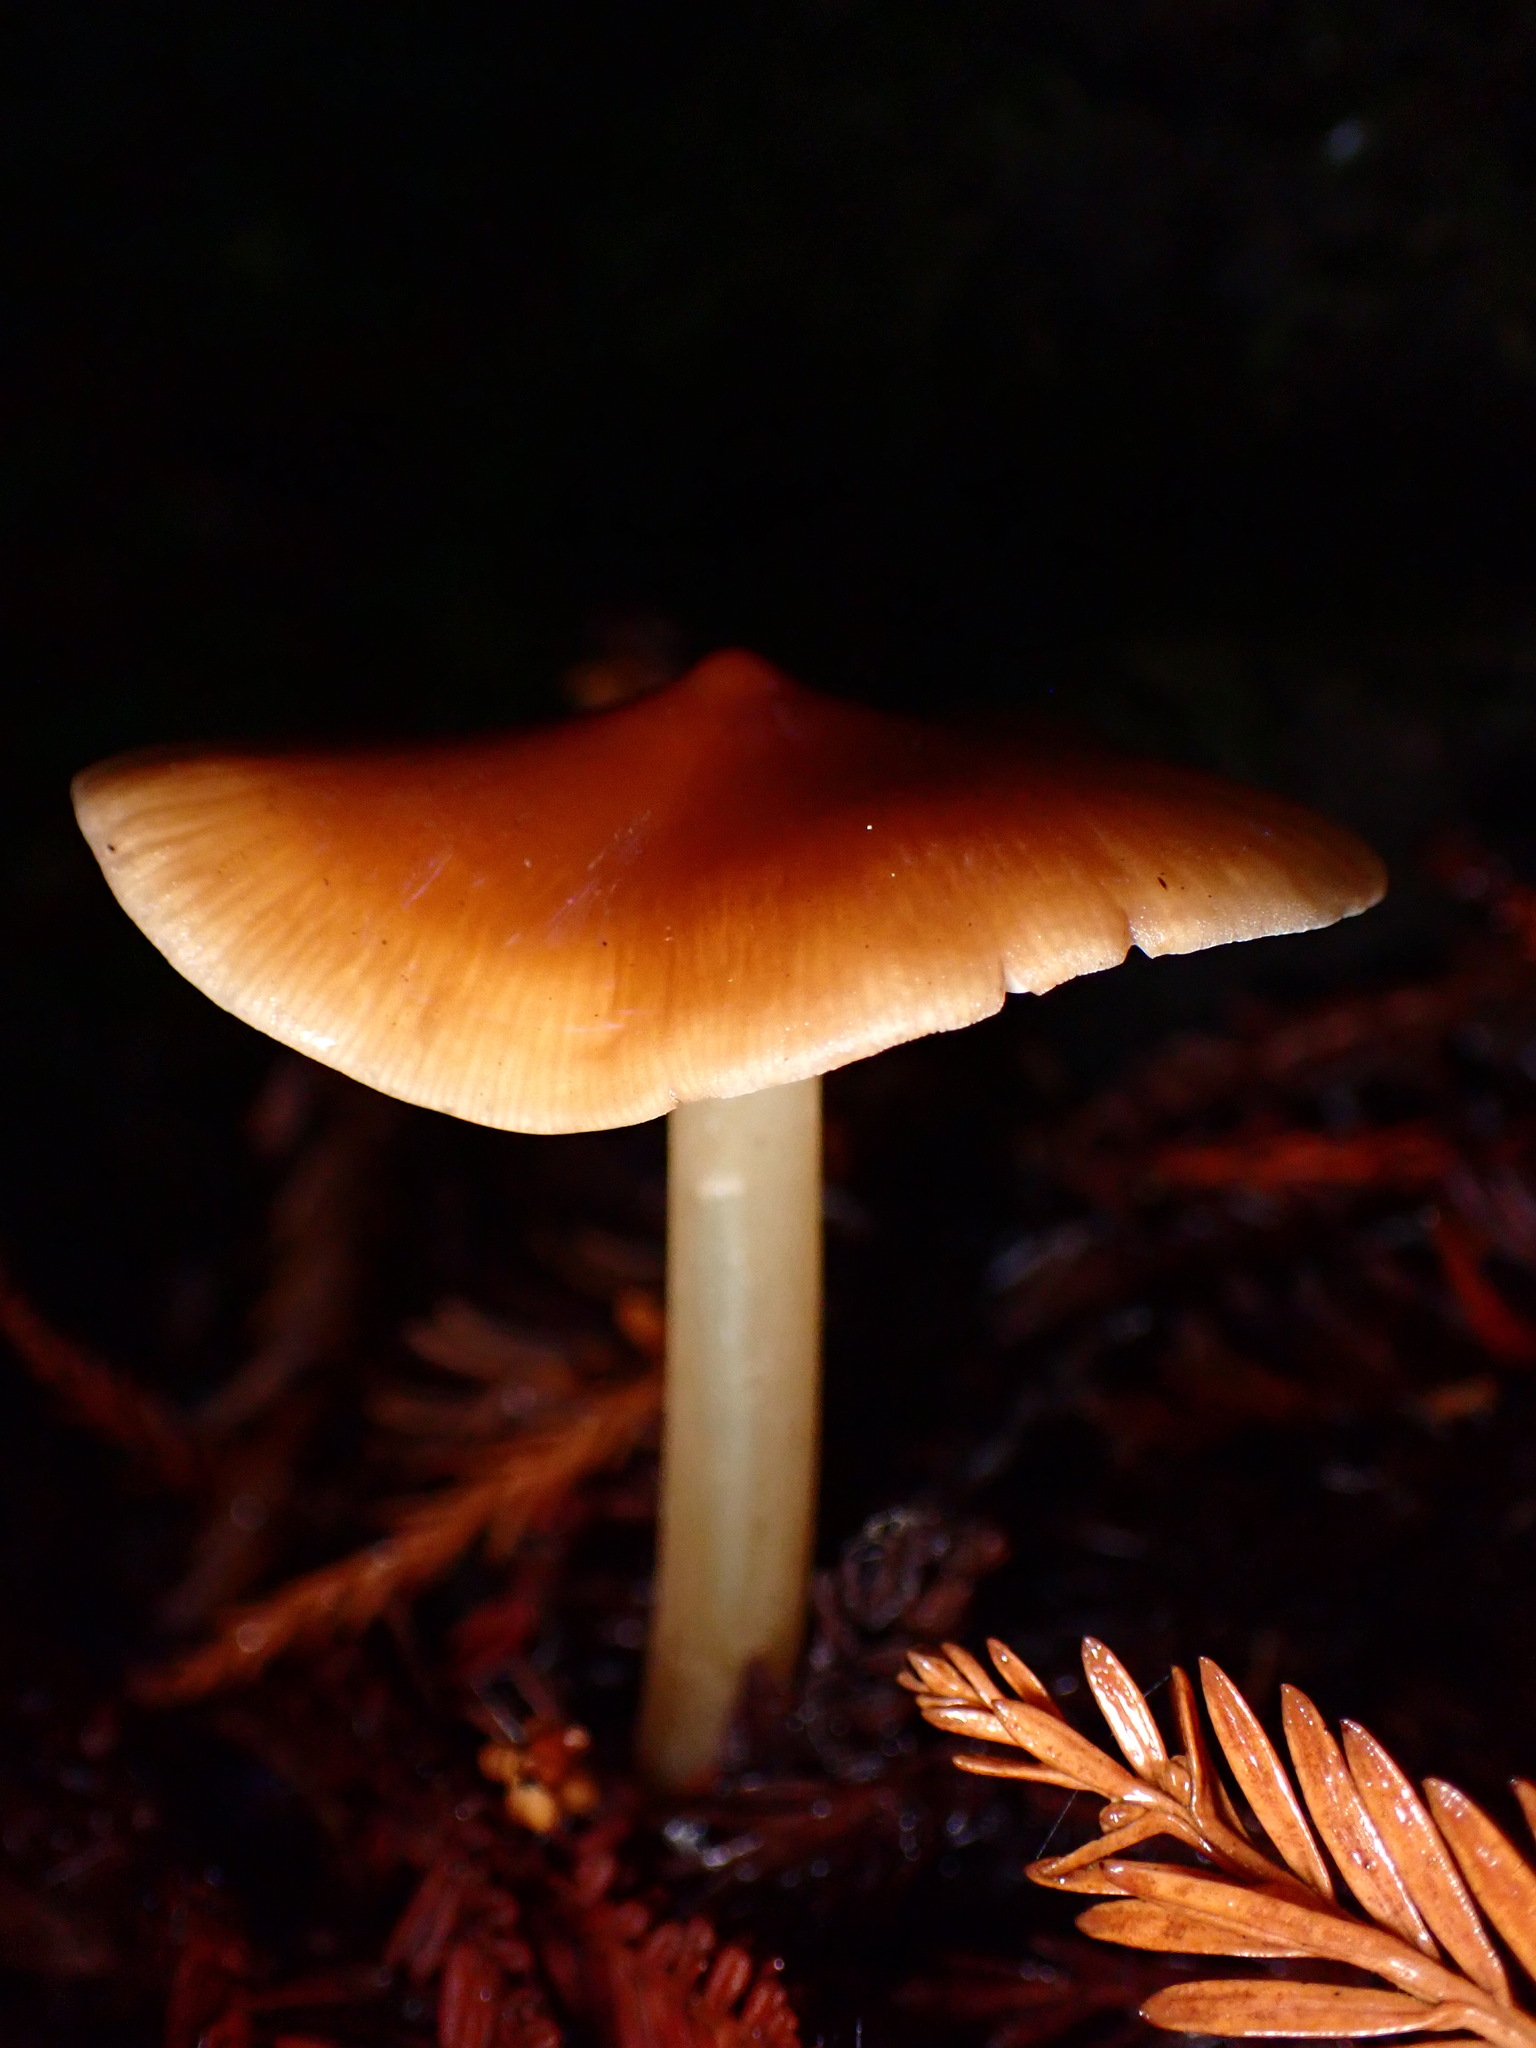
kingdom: Fungi
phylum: Basidiomycota
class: Agaricomycetes
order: Agaricales
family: Tricholomataceae
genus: Caulorhiza
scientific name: Caulorhiza umbonata
